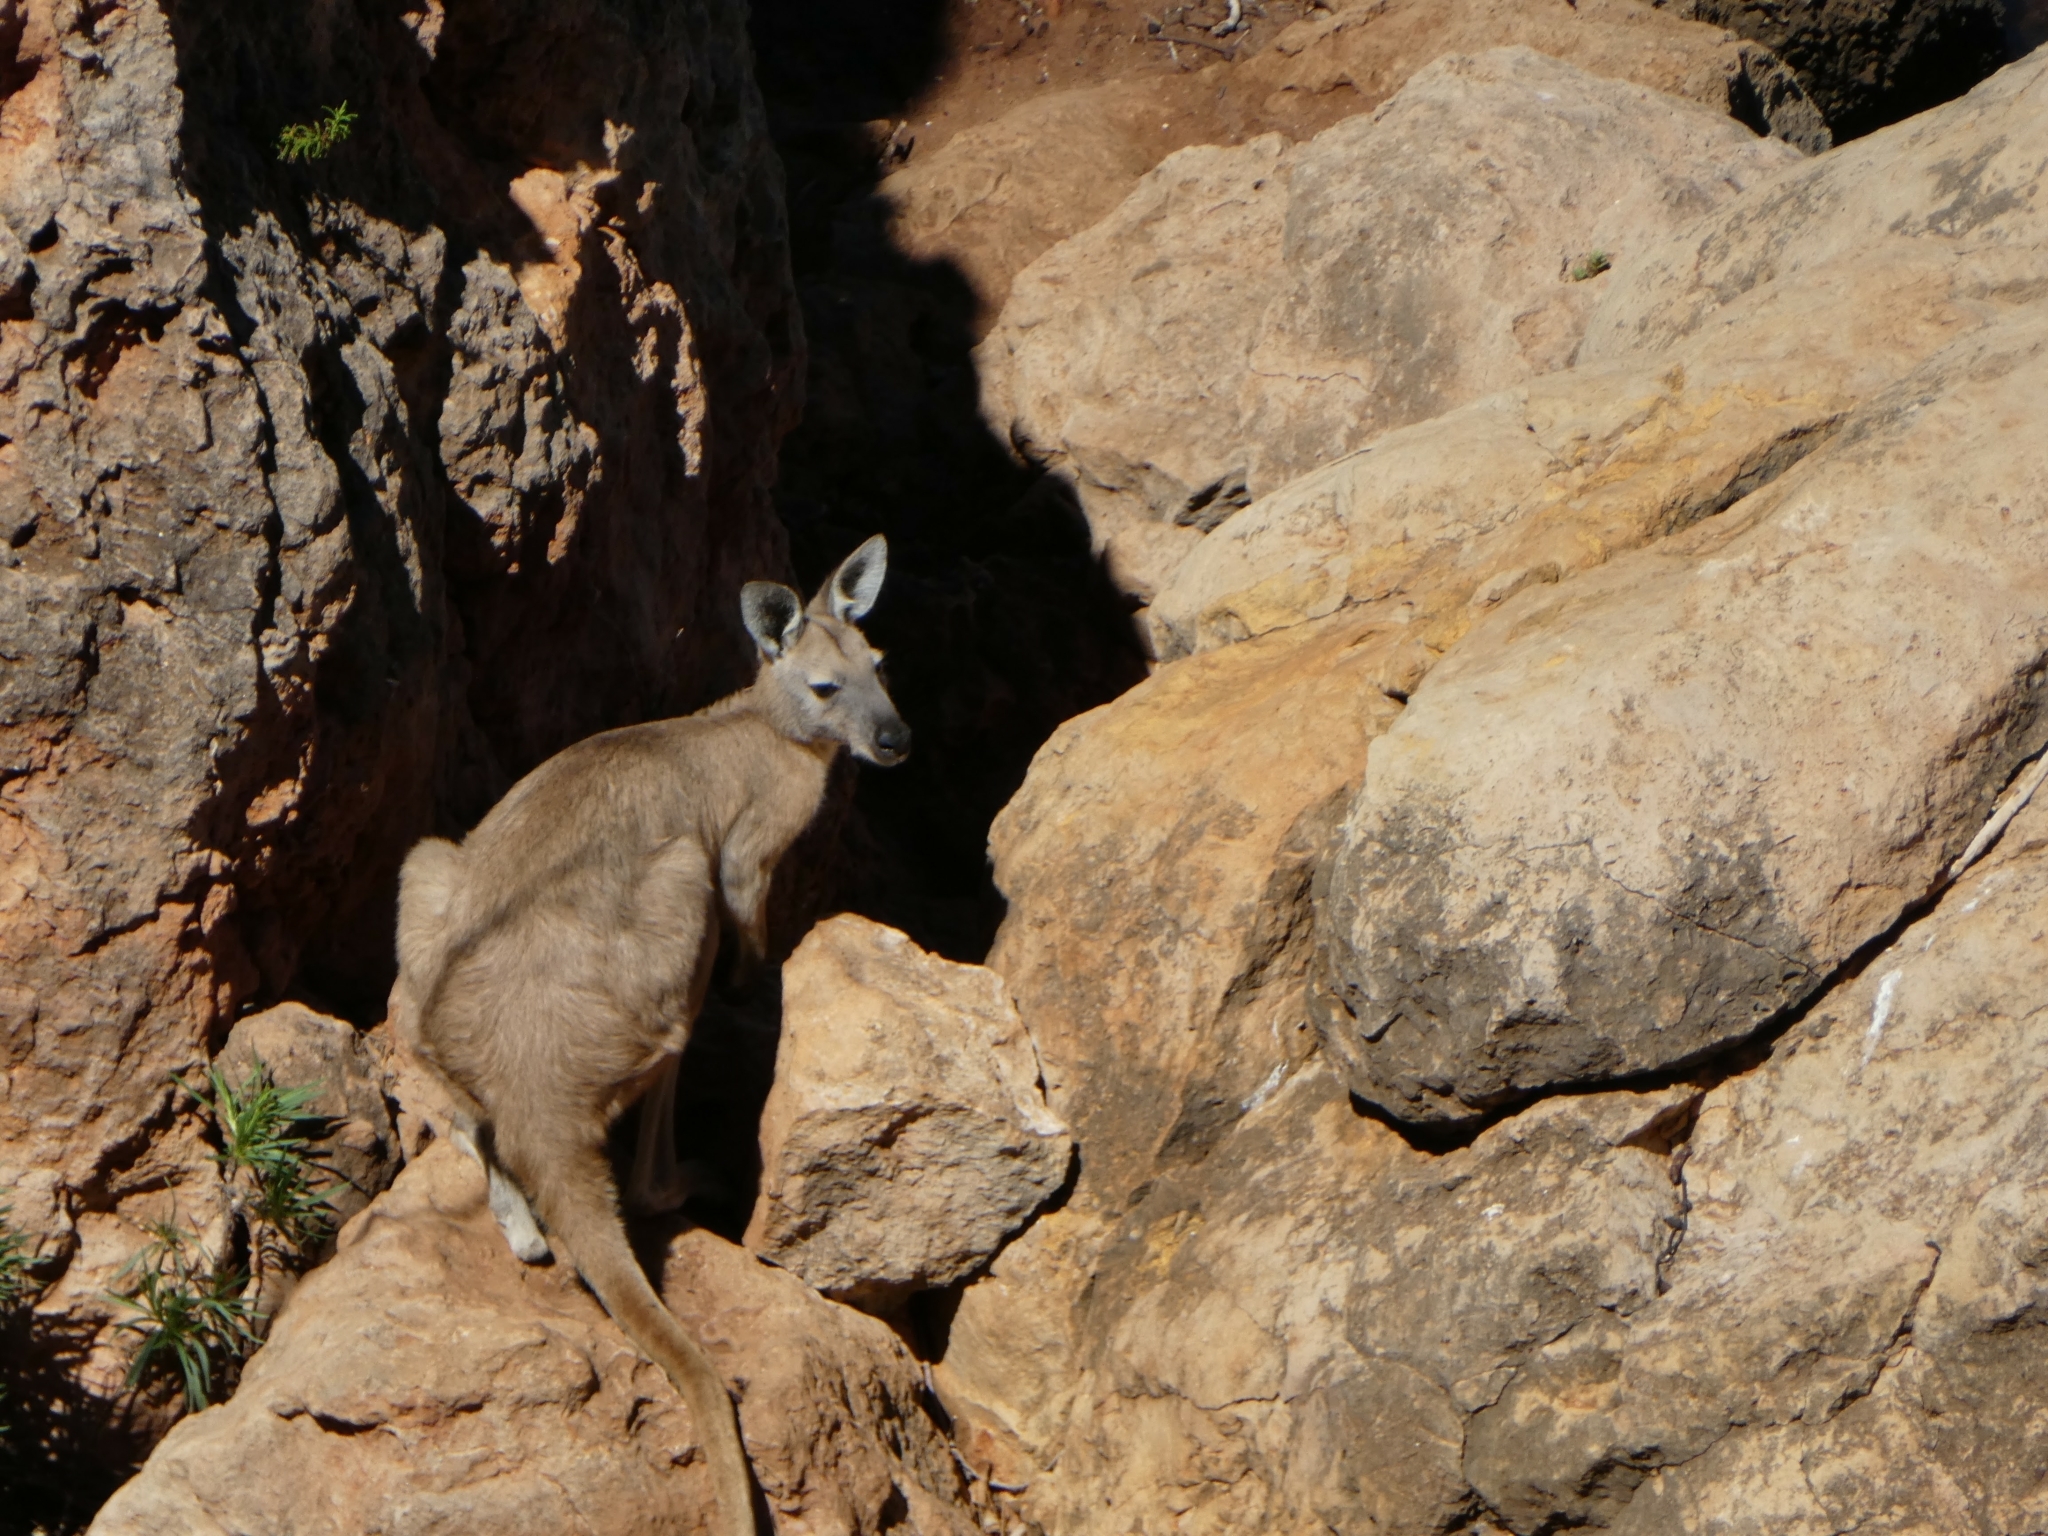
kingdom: Animalia
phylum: Chordata
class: Mammalia
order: Diprotodontia
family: Macropodidae
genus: Macropus
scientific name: Macropus robustus
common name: Eastern wallaroo
